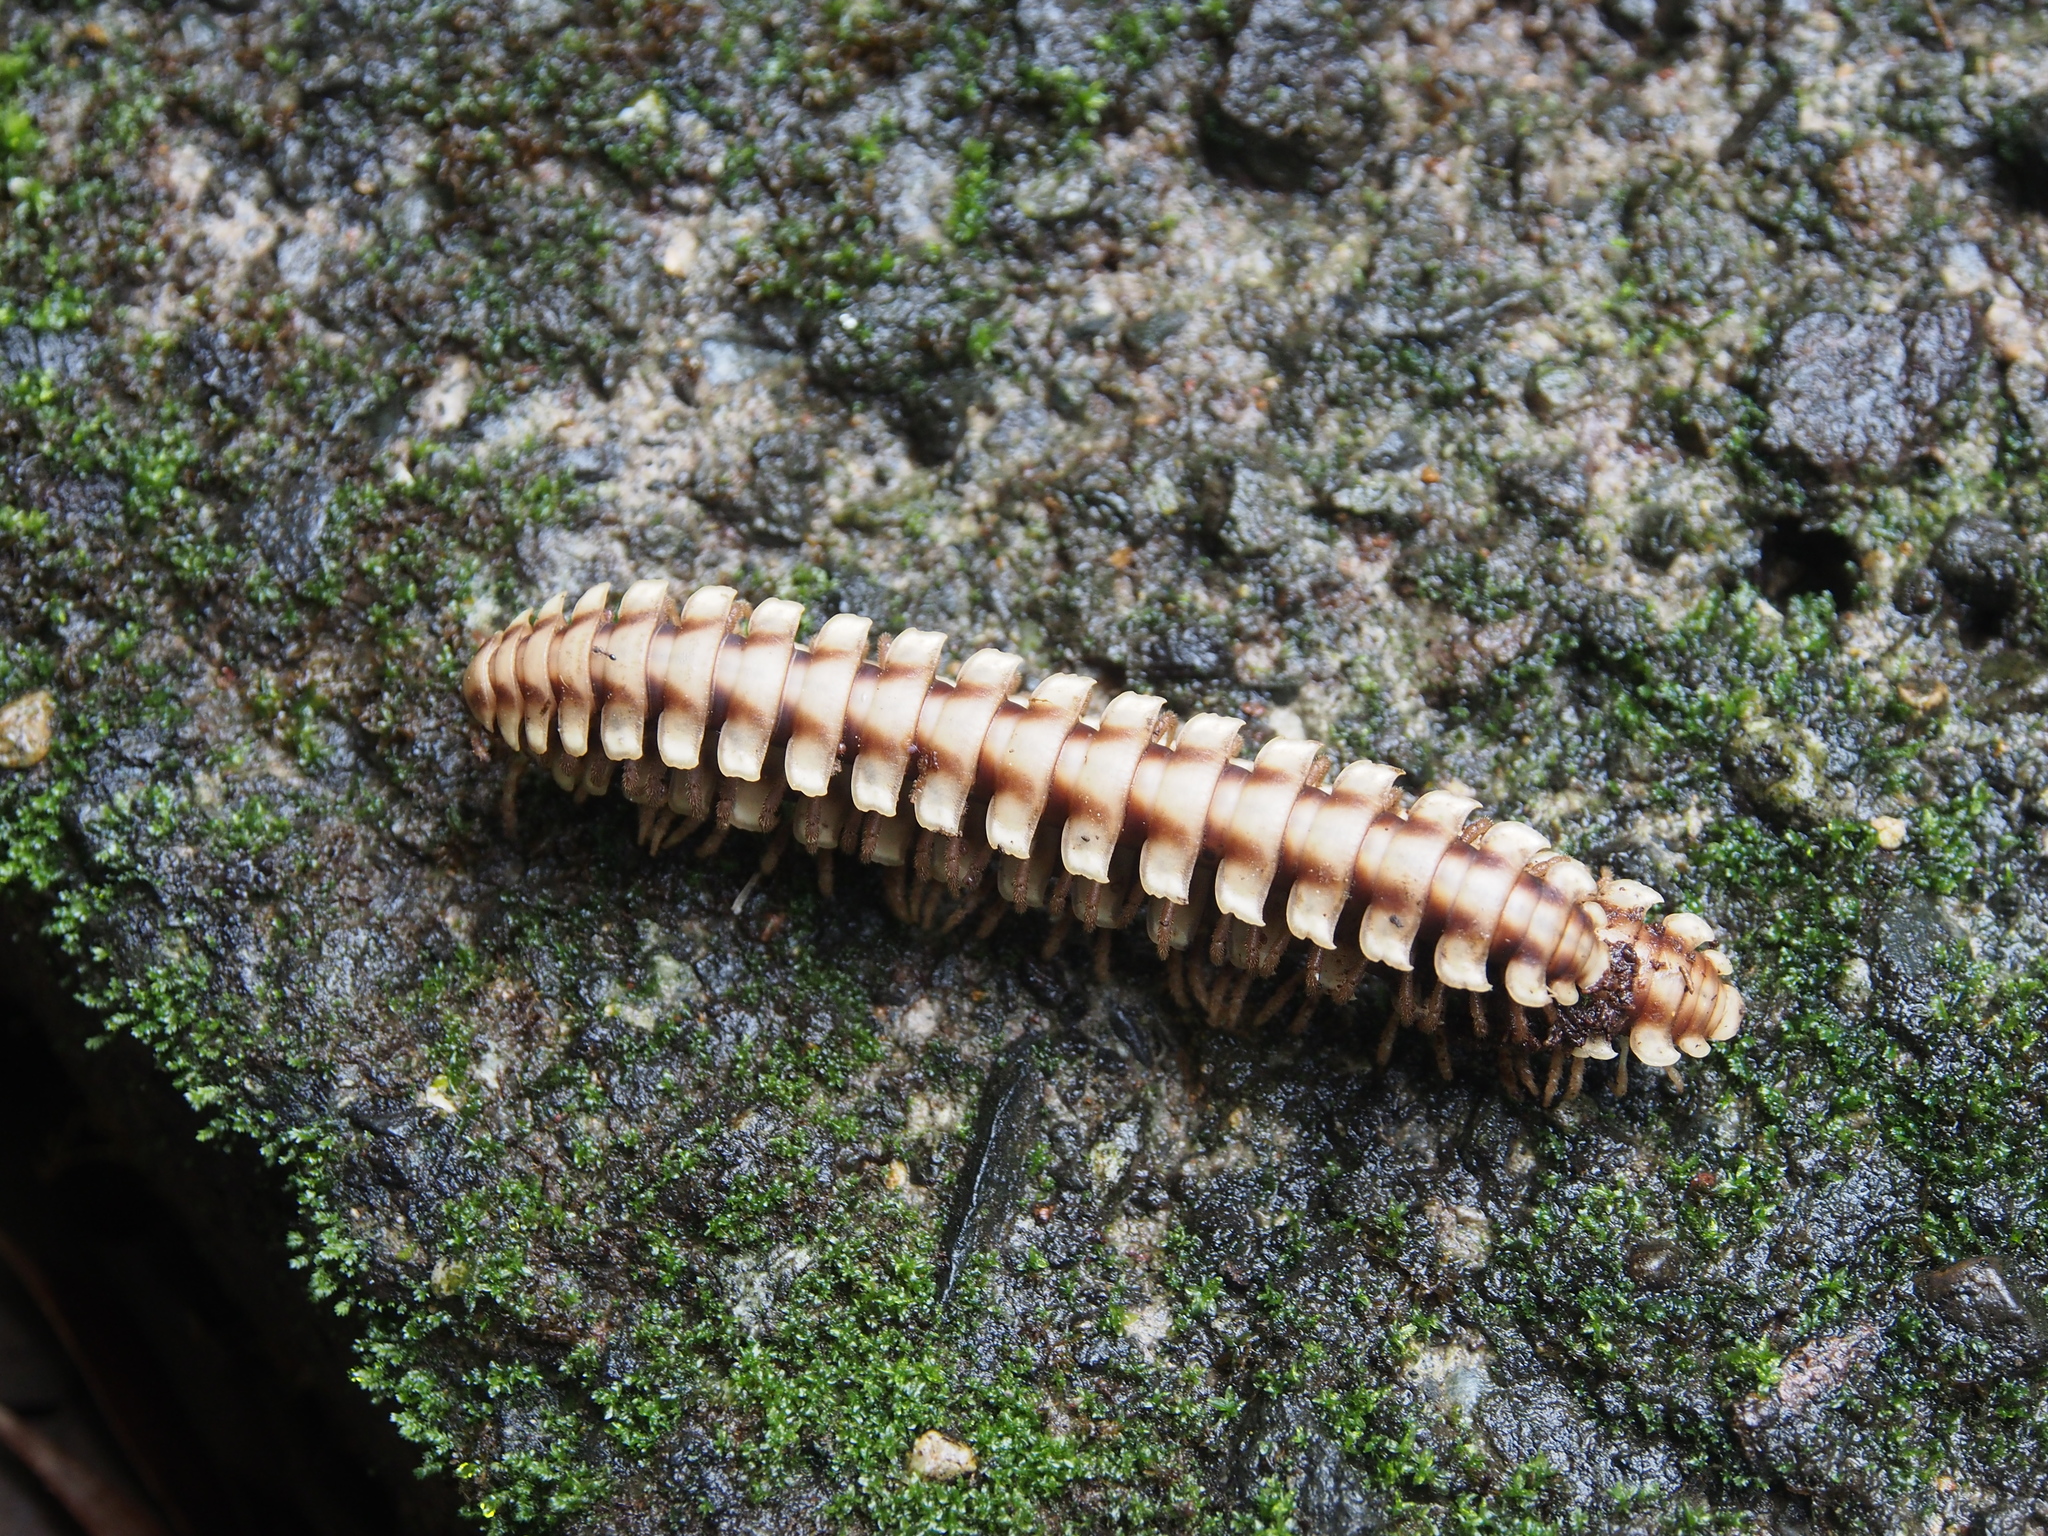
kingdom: Animalia
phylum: Arthropoda
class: Diplopoda
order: Polydesmida
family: Platyrhacidae
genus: Nyssodesmus
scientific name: Nyssodesmus python
